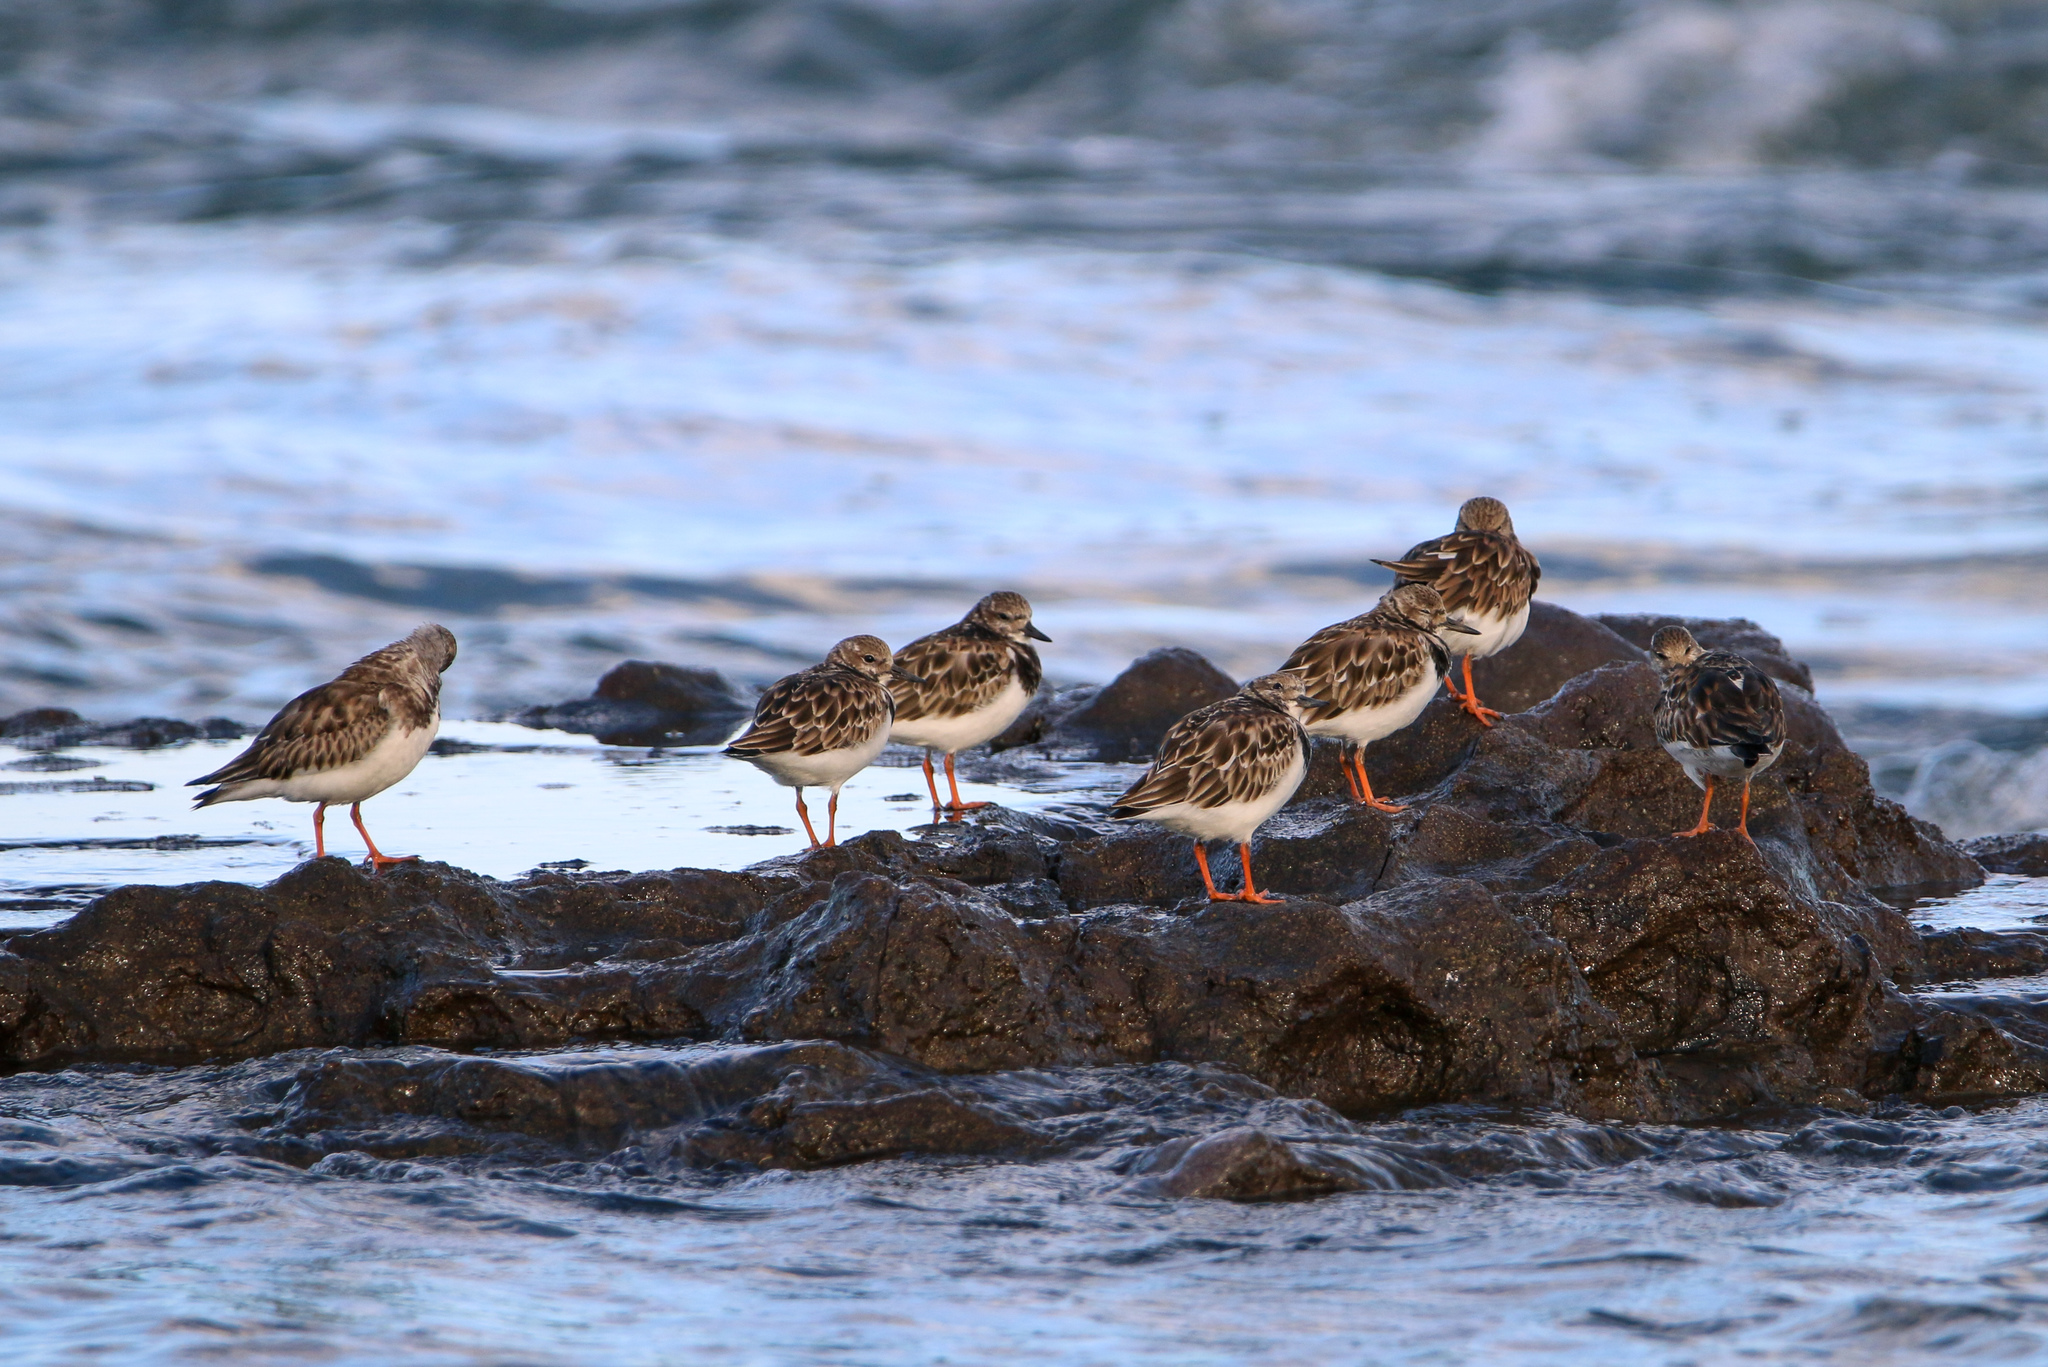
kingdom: Animalia
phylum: Chordata
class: Aves
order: Charadriiformes
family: Scolopacidae
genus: Arenaria
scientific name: Arenaria interpres
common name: Ruddy turnstone
